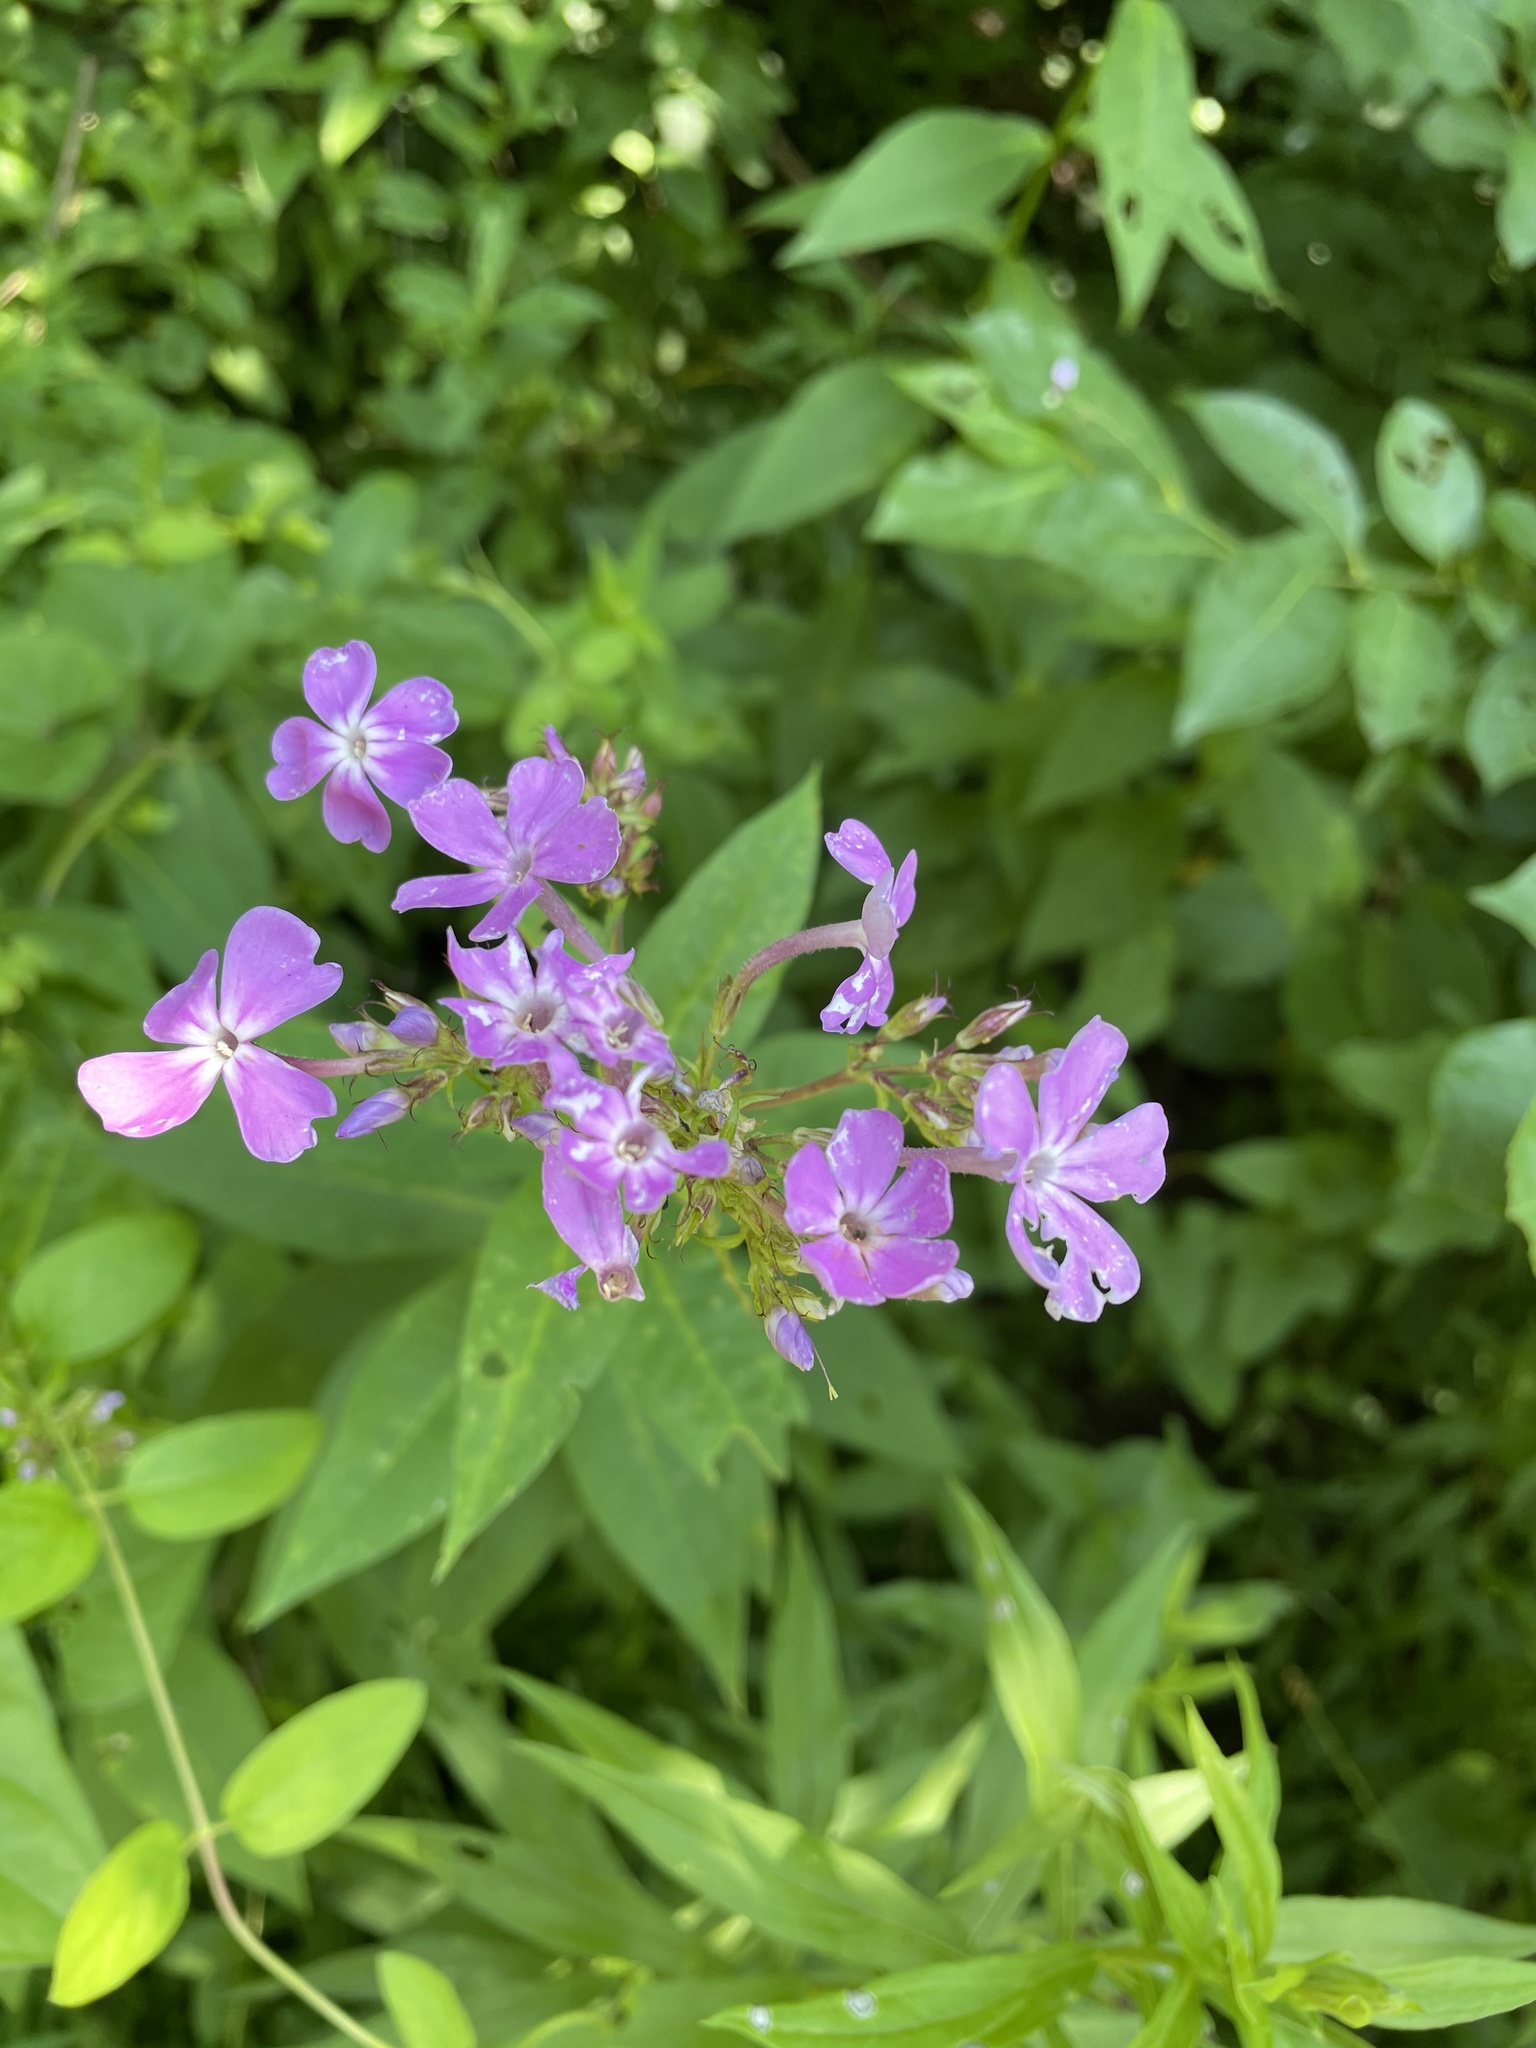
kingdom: Plantae
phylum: Tracheophyta
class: Magnoliopsida
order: Ericales
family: Polemoniaceae
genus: Phlox
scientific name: Phlox paniculata
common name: Fall phlox
